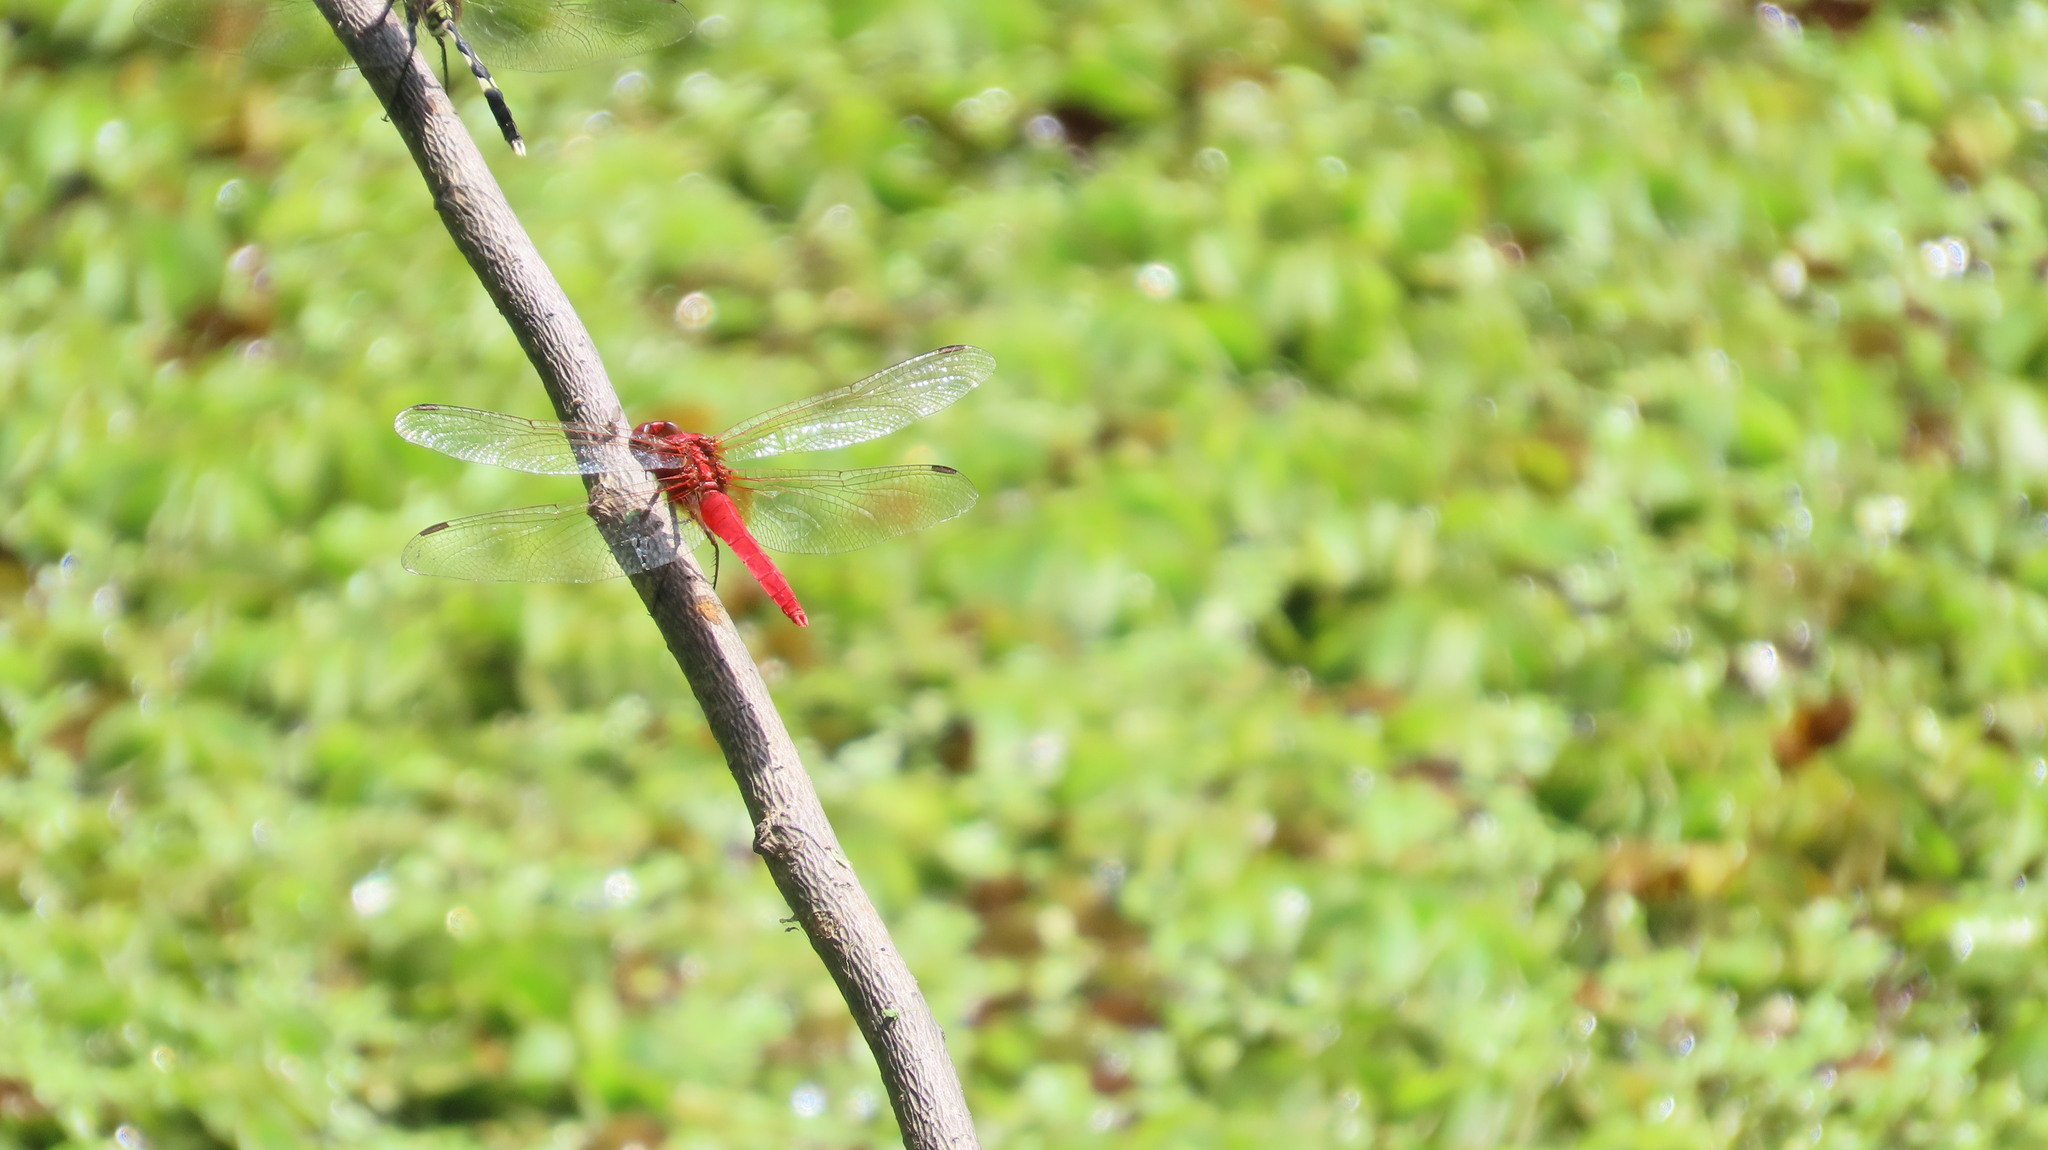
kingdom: Animalia
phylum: Arthropoda
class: Insecta
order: Odonata
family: Libellulidae
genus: Rhodothemis
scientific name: Rhodothemis rufa
